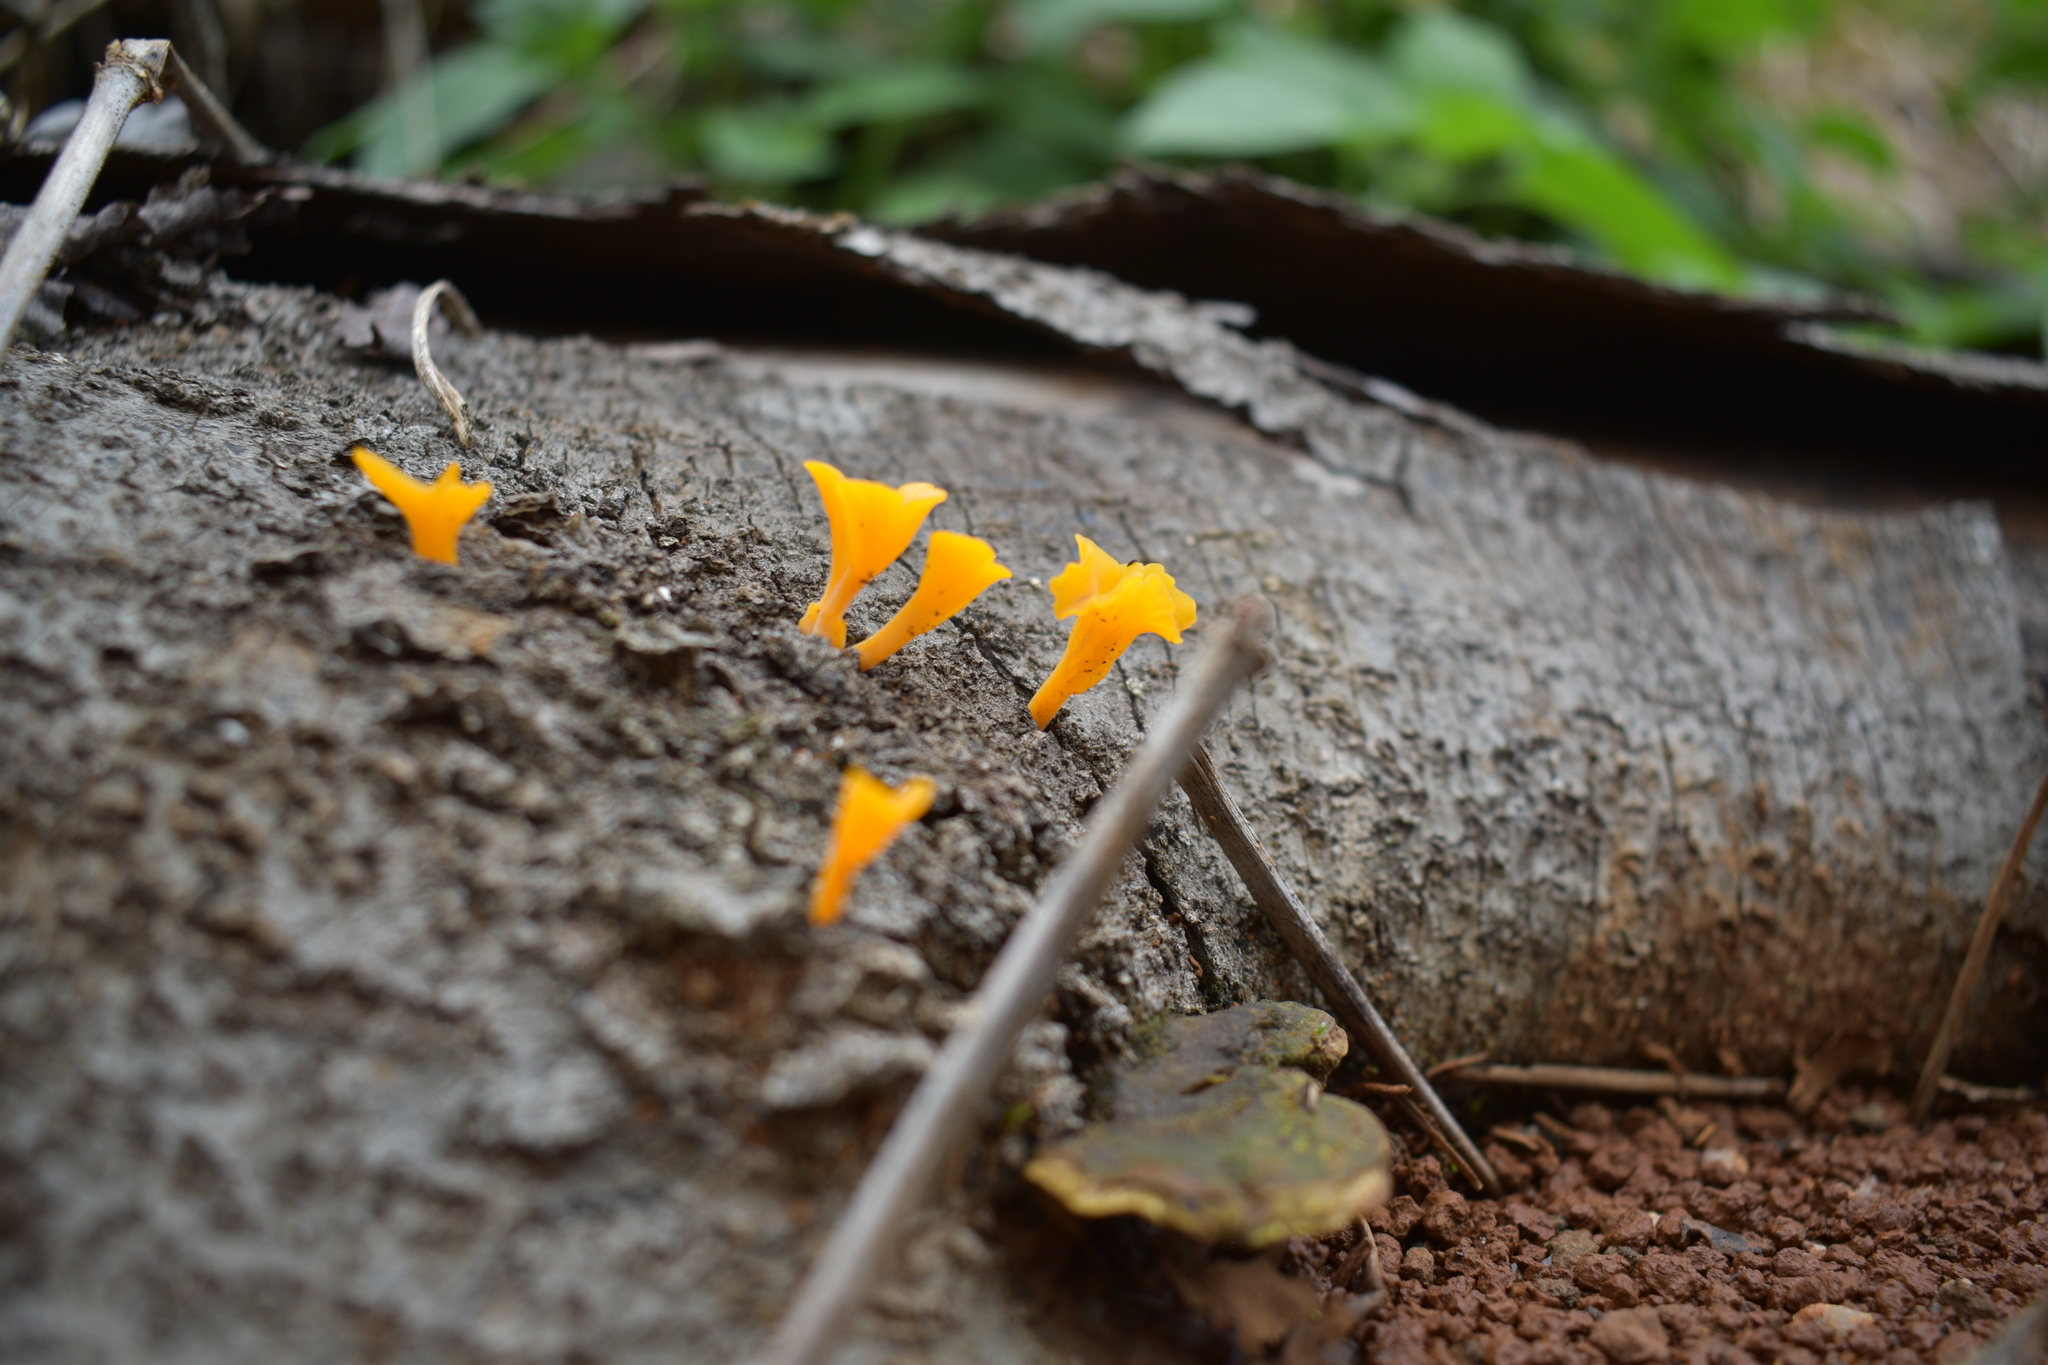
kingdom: Fungi
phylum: Basidiomycota
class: Dacrymycetes
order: Dacrymycetales
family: Dacrymycetaceae
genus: Dacrymyces
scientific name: Dacrymyces spathularius
